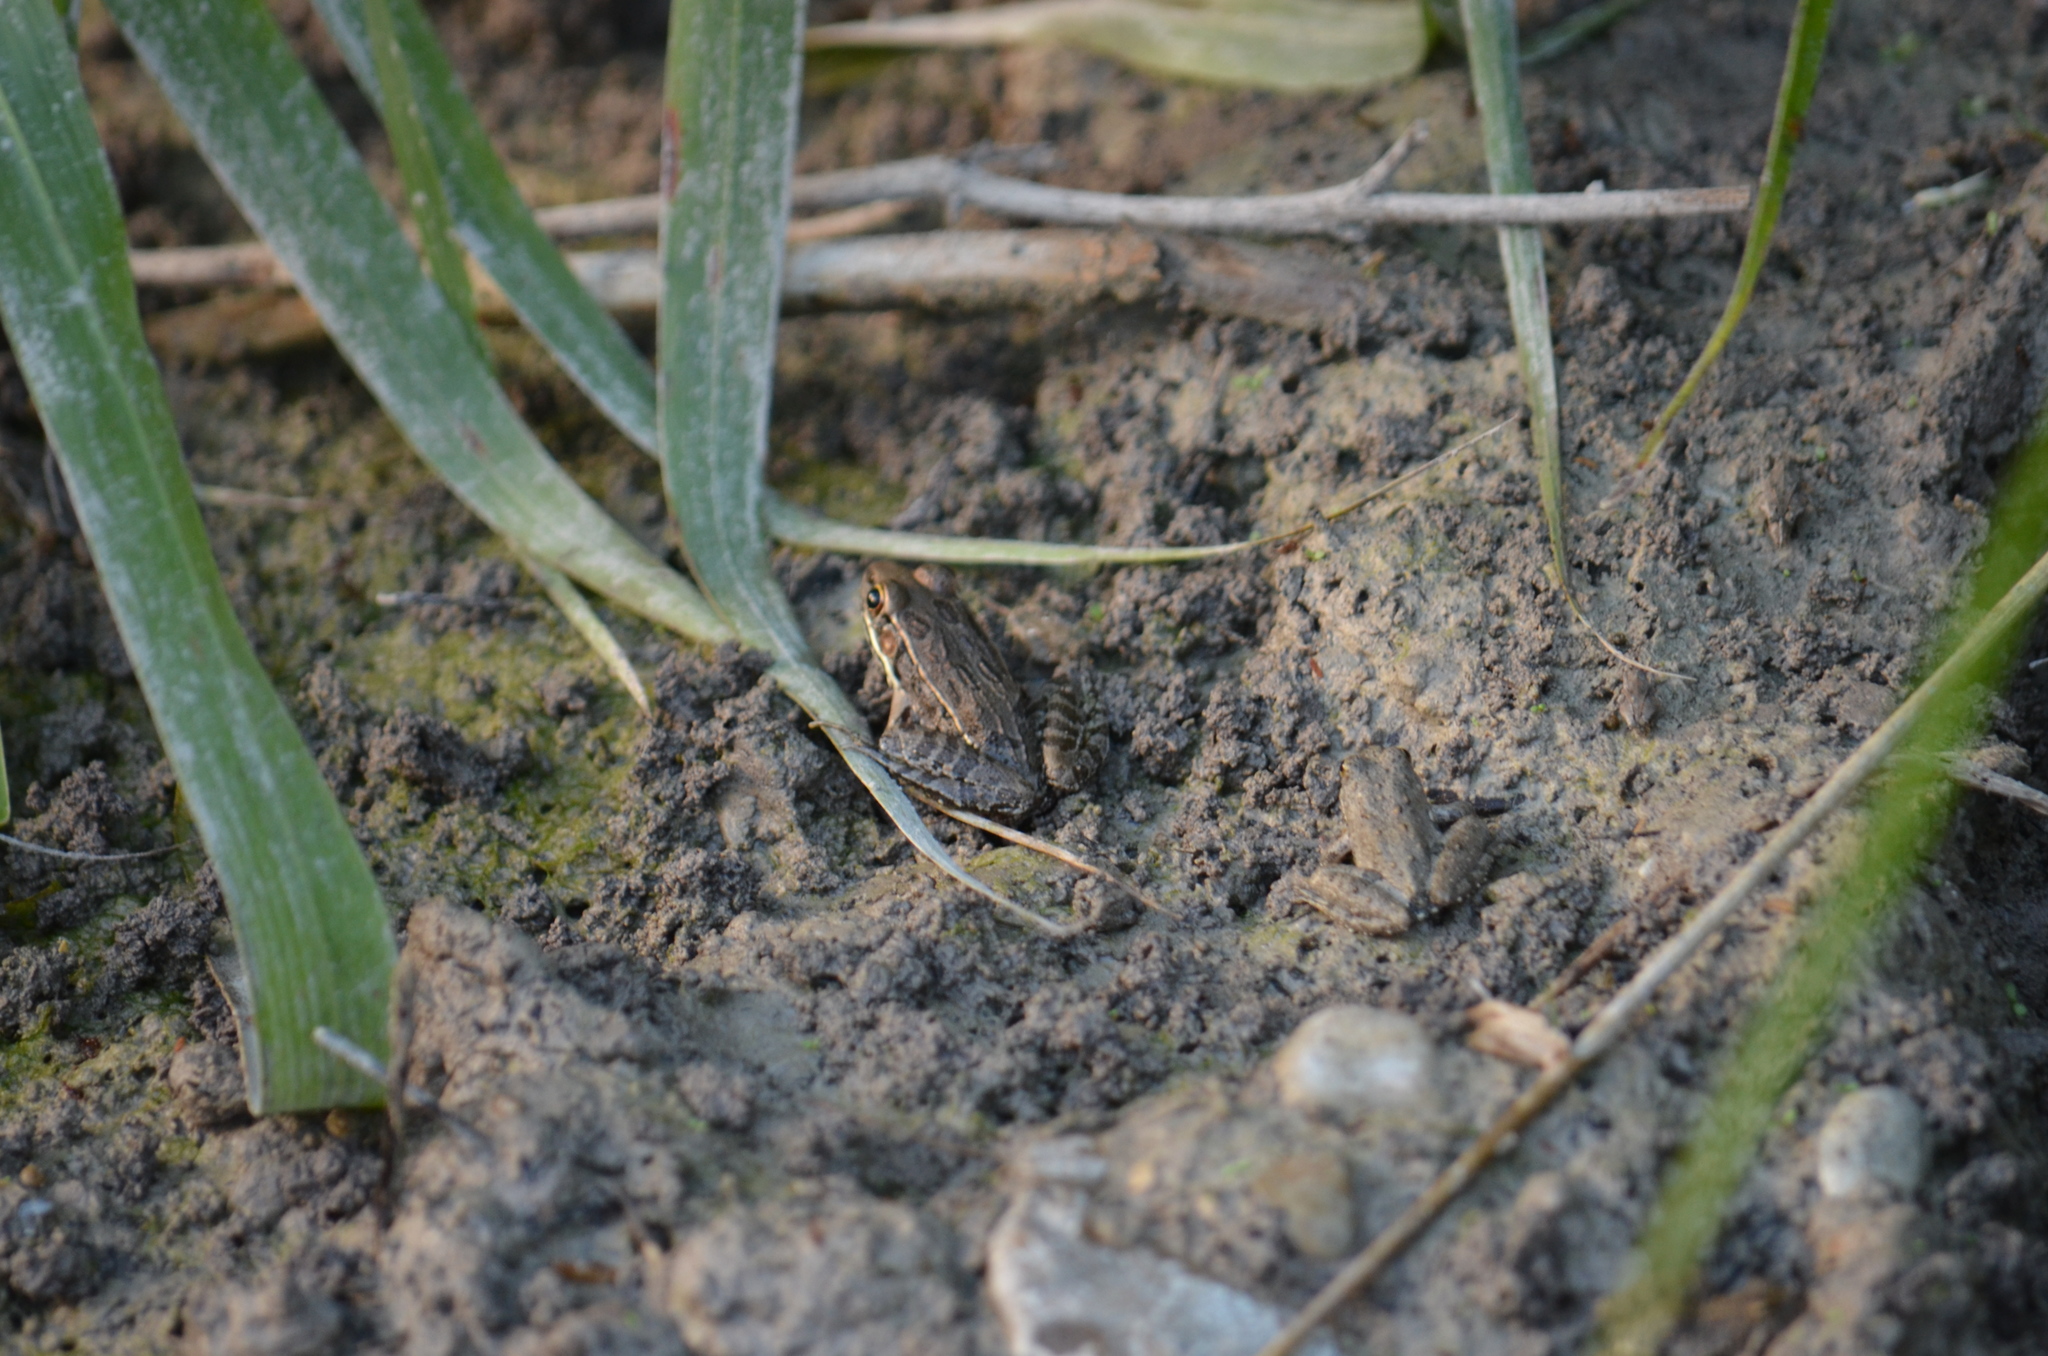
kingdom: Animalia
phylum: Chordata
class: Amphibia
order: Anura
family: Ranidae
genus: Lithobates
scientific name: Lithobates berlandieri
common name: Rio grande leopard frog
